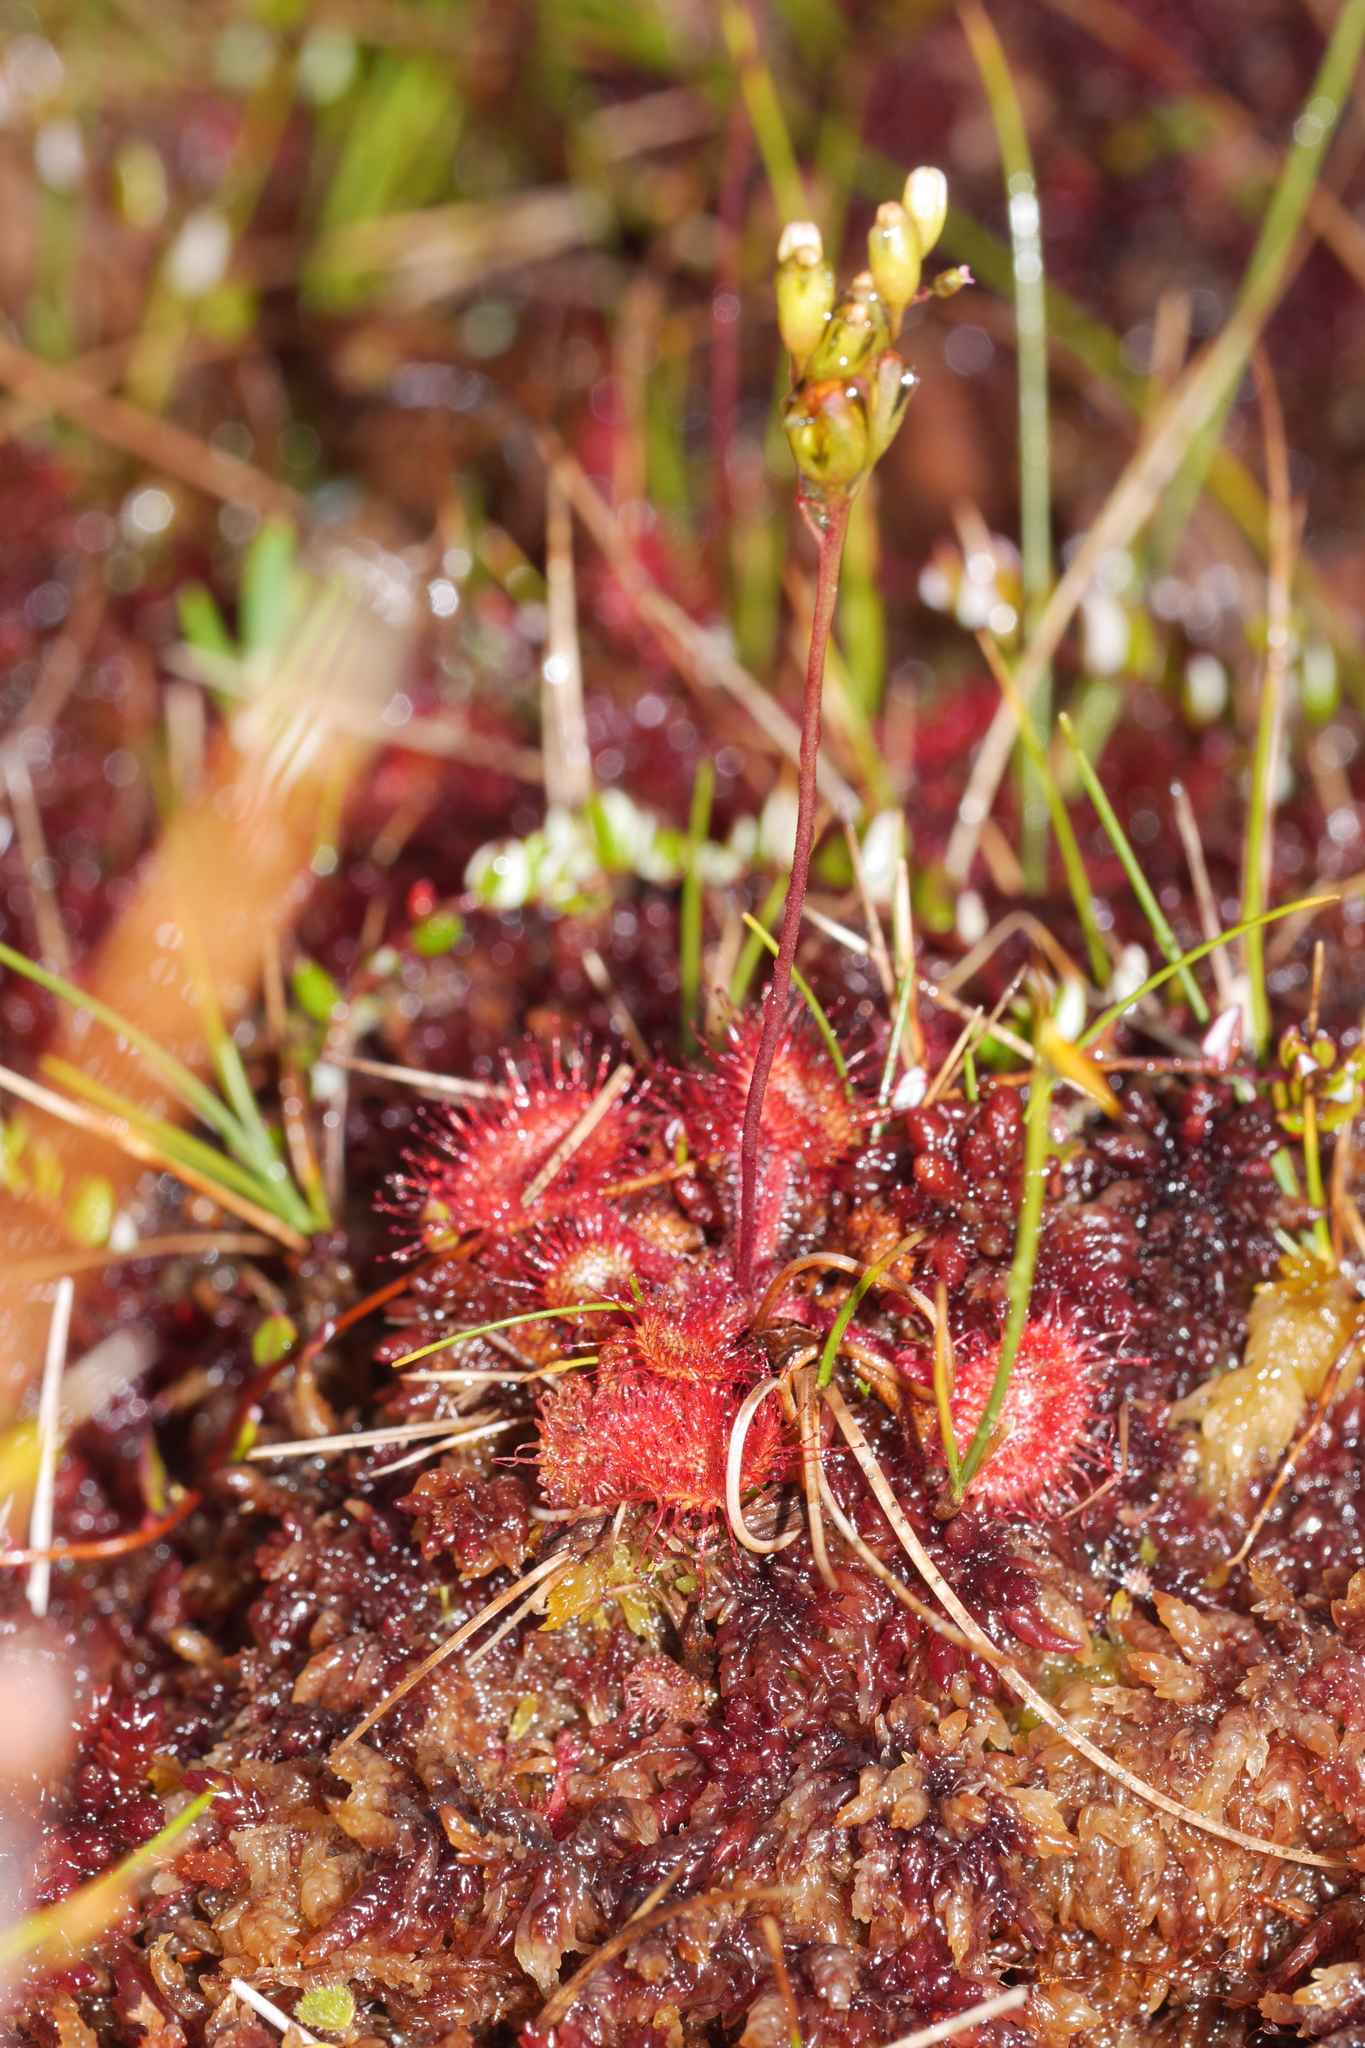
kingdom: Plantae
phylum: Tracheophyta
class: Magnoliopsida
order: Caryophyllales
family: Droseraceae
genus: Drosera
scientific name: Drosera rotundifolia
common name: Round-leaved sundew
